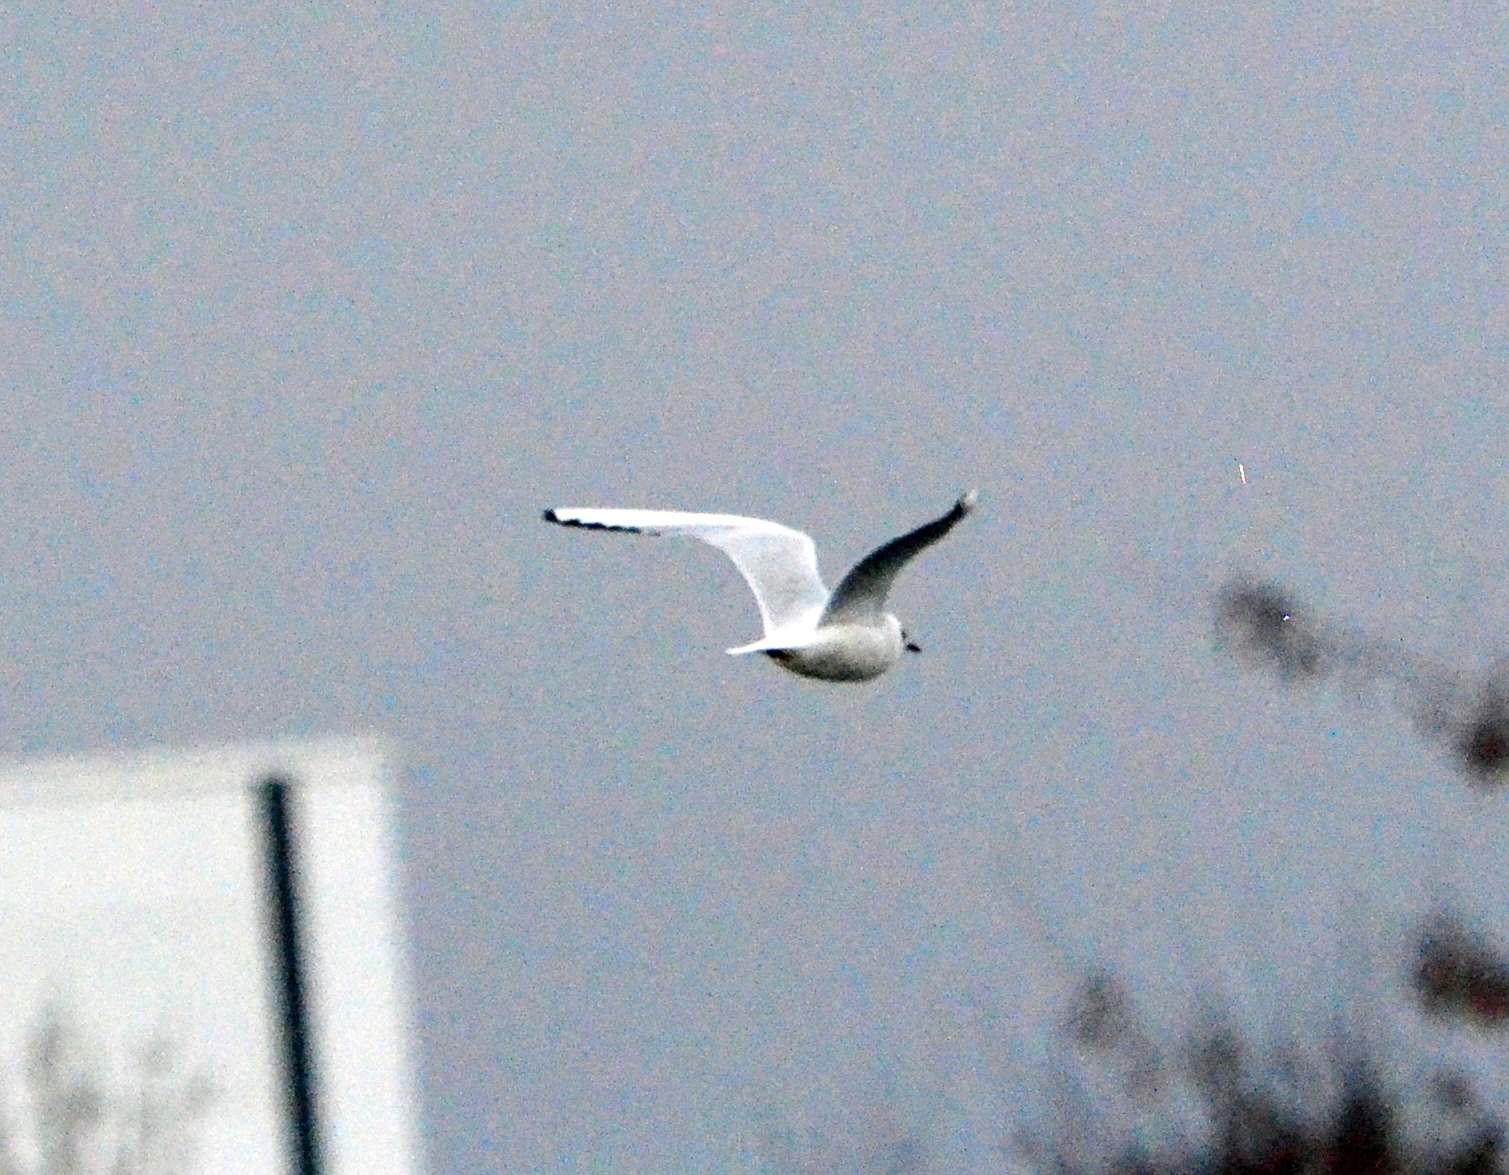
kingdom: Animalia
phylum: Chordata
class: Aves
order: Charadriiformes
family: Laridae
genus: Chroicocephalus
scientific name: Chroicocephalus ridibundus
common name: Black-headed gull
